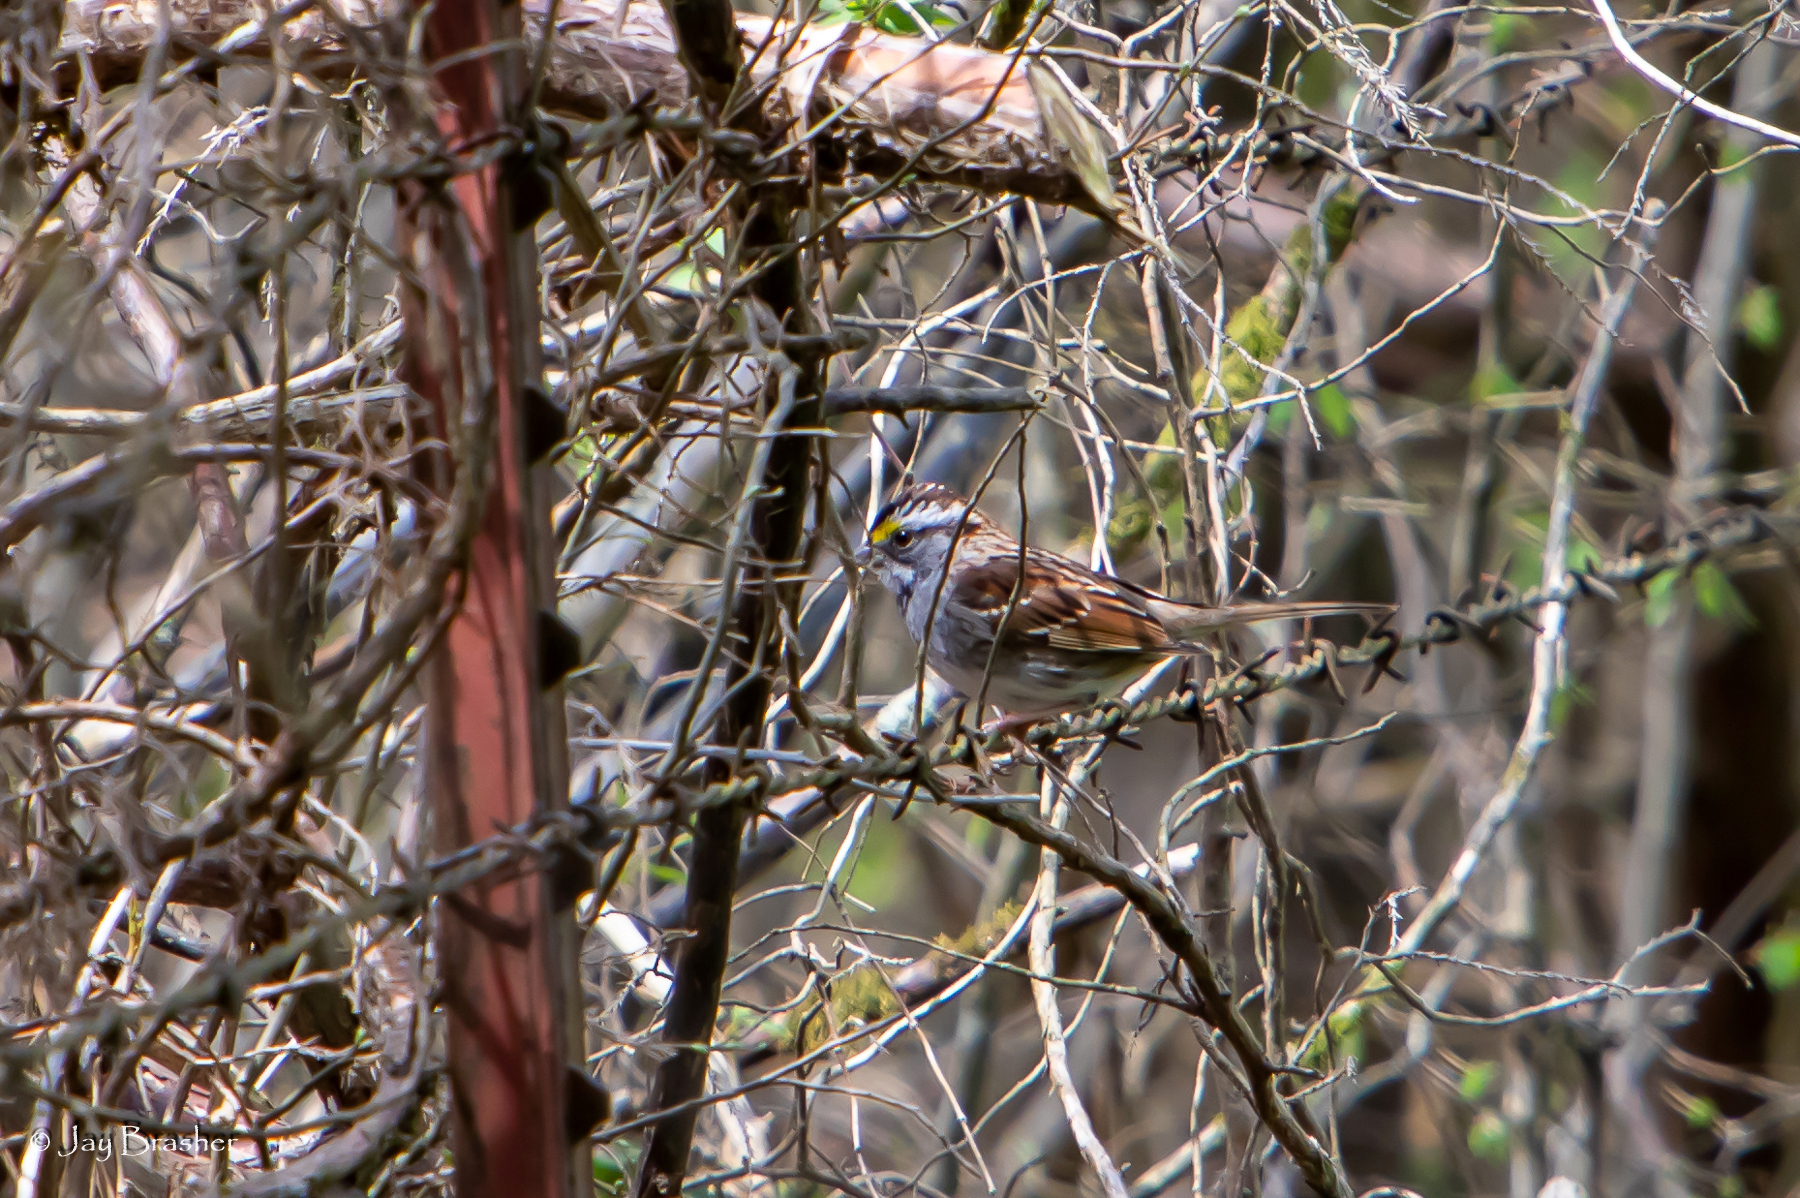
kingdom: Animalia
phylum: Chordata
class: Aves
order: Passeriformes
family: Passerellidae
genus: Zonotrichia
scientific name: Zonotrichia albicollis
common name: White-throated sparrow
